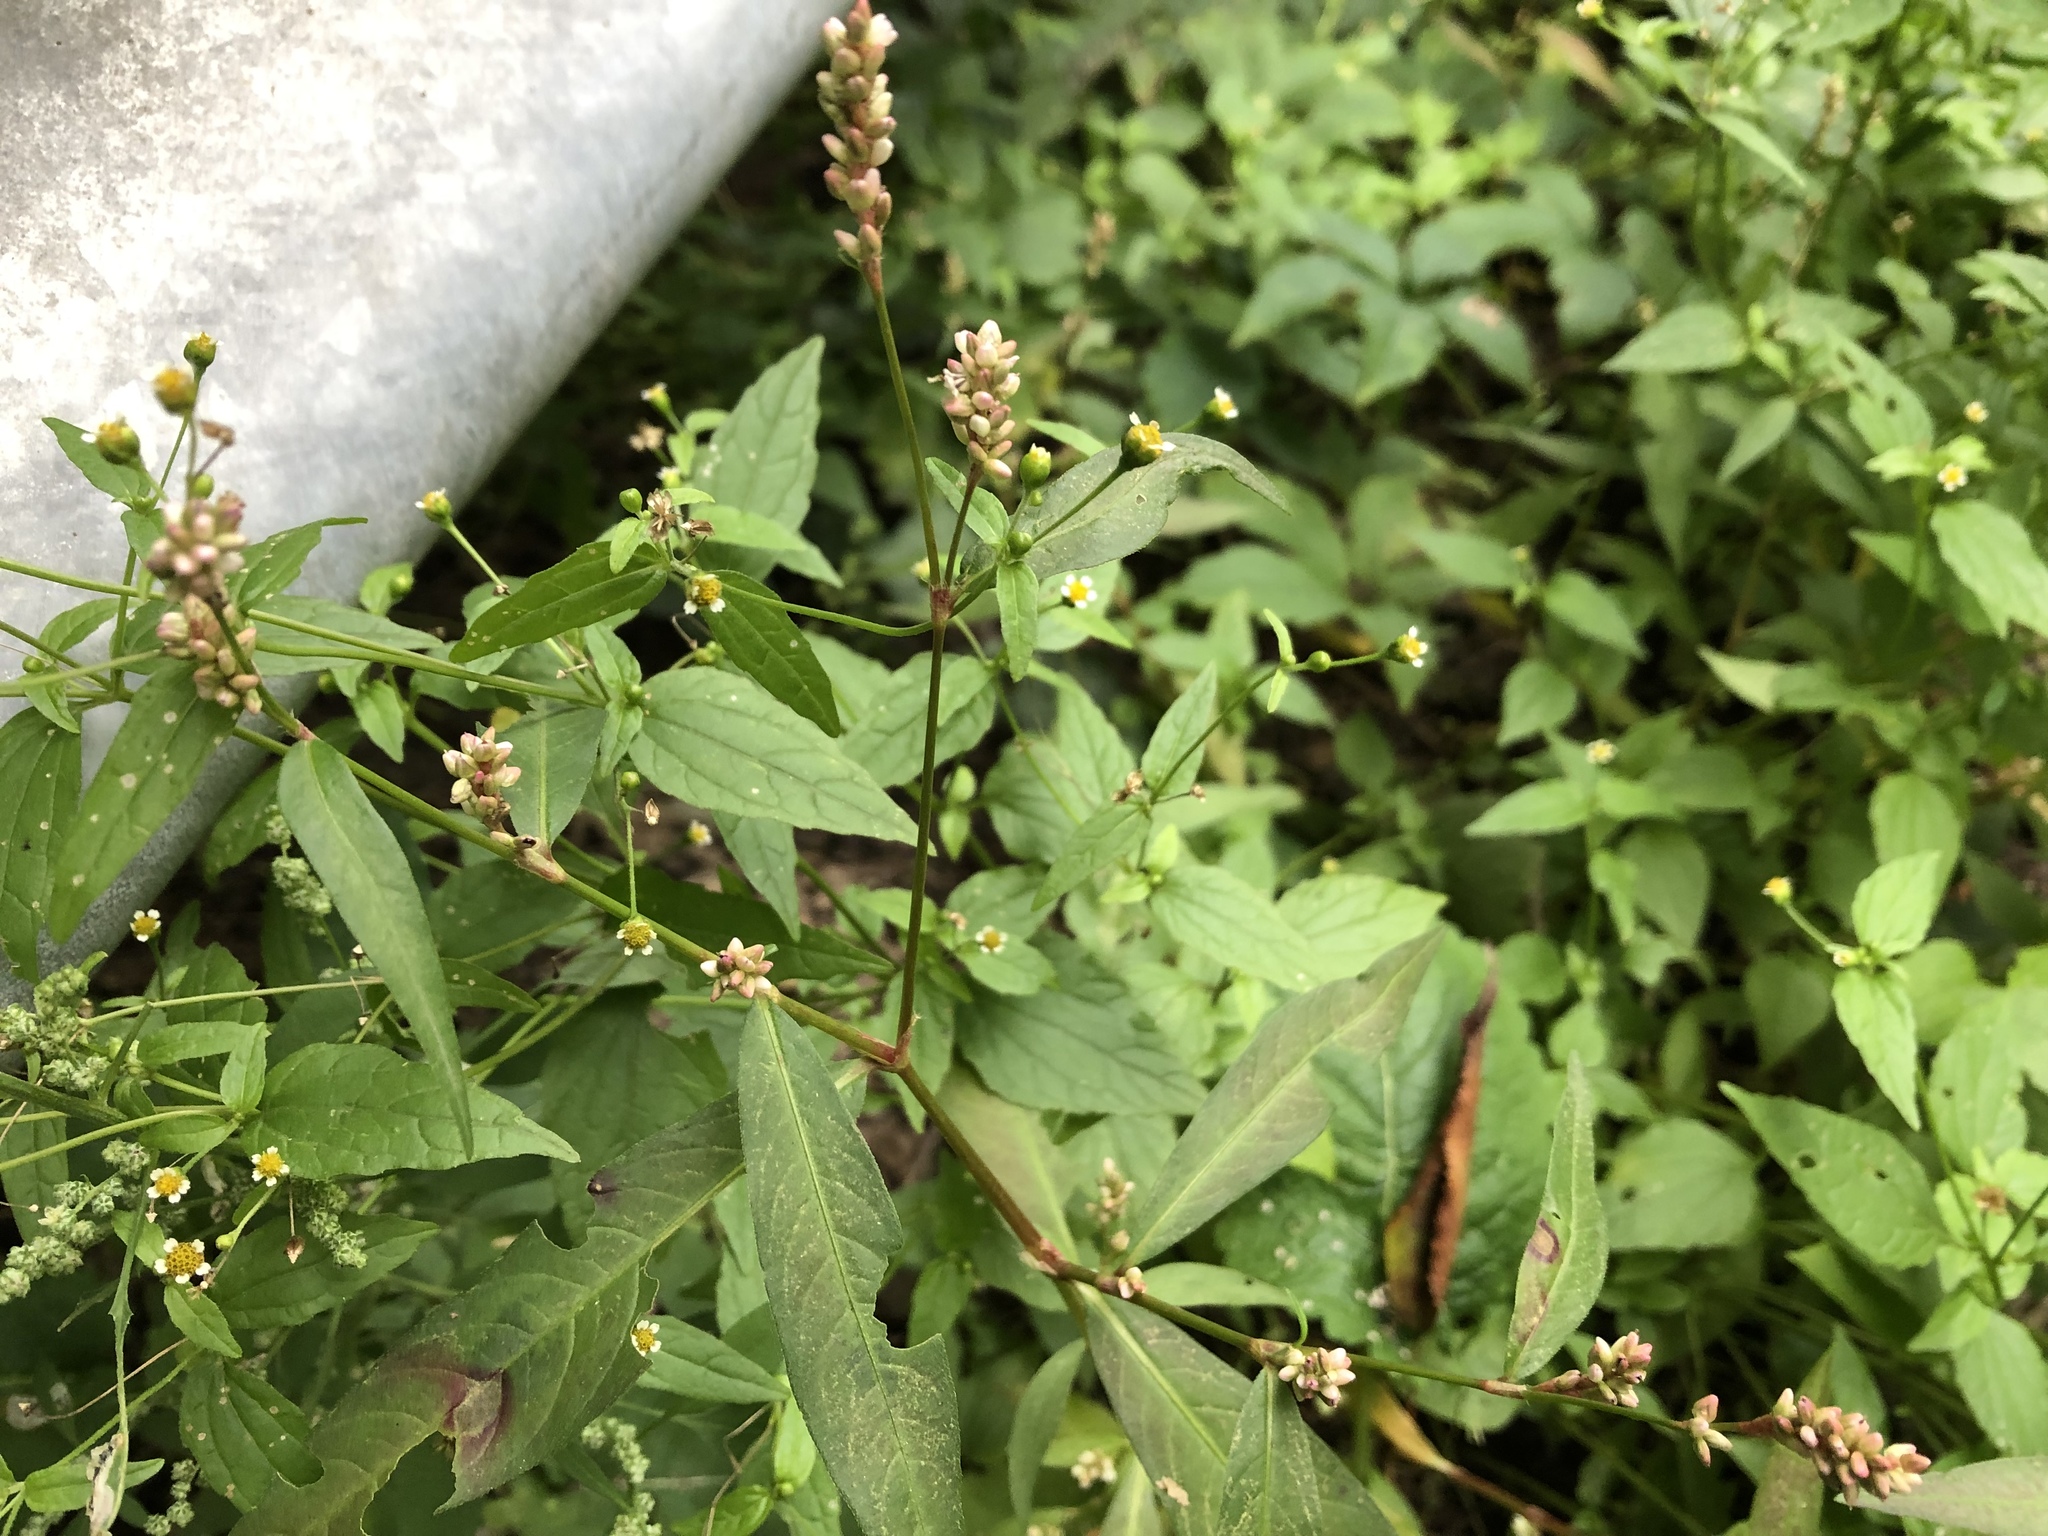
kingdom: Plantae
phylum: Tracheophyta
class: Magnoliopsida
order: Caryophyllales
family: Polygonaceae
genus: Persicaria
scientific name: Persicaria lapathifolia
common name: Curlytop knotweed
